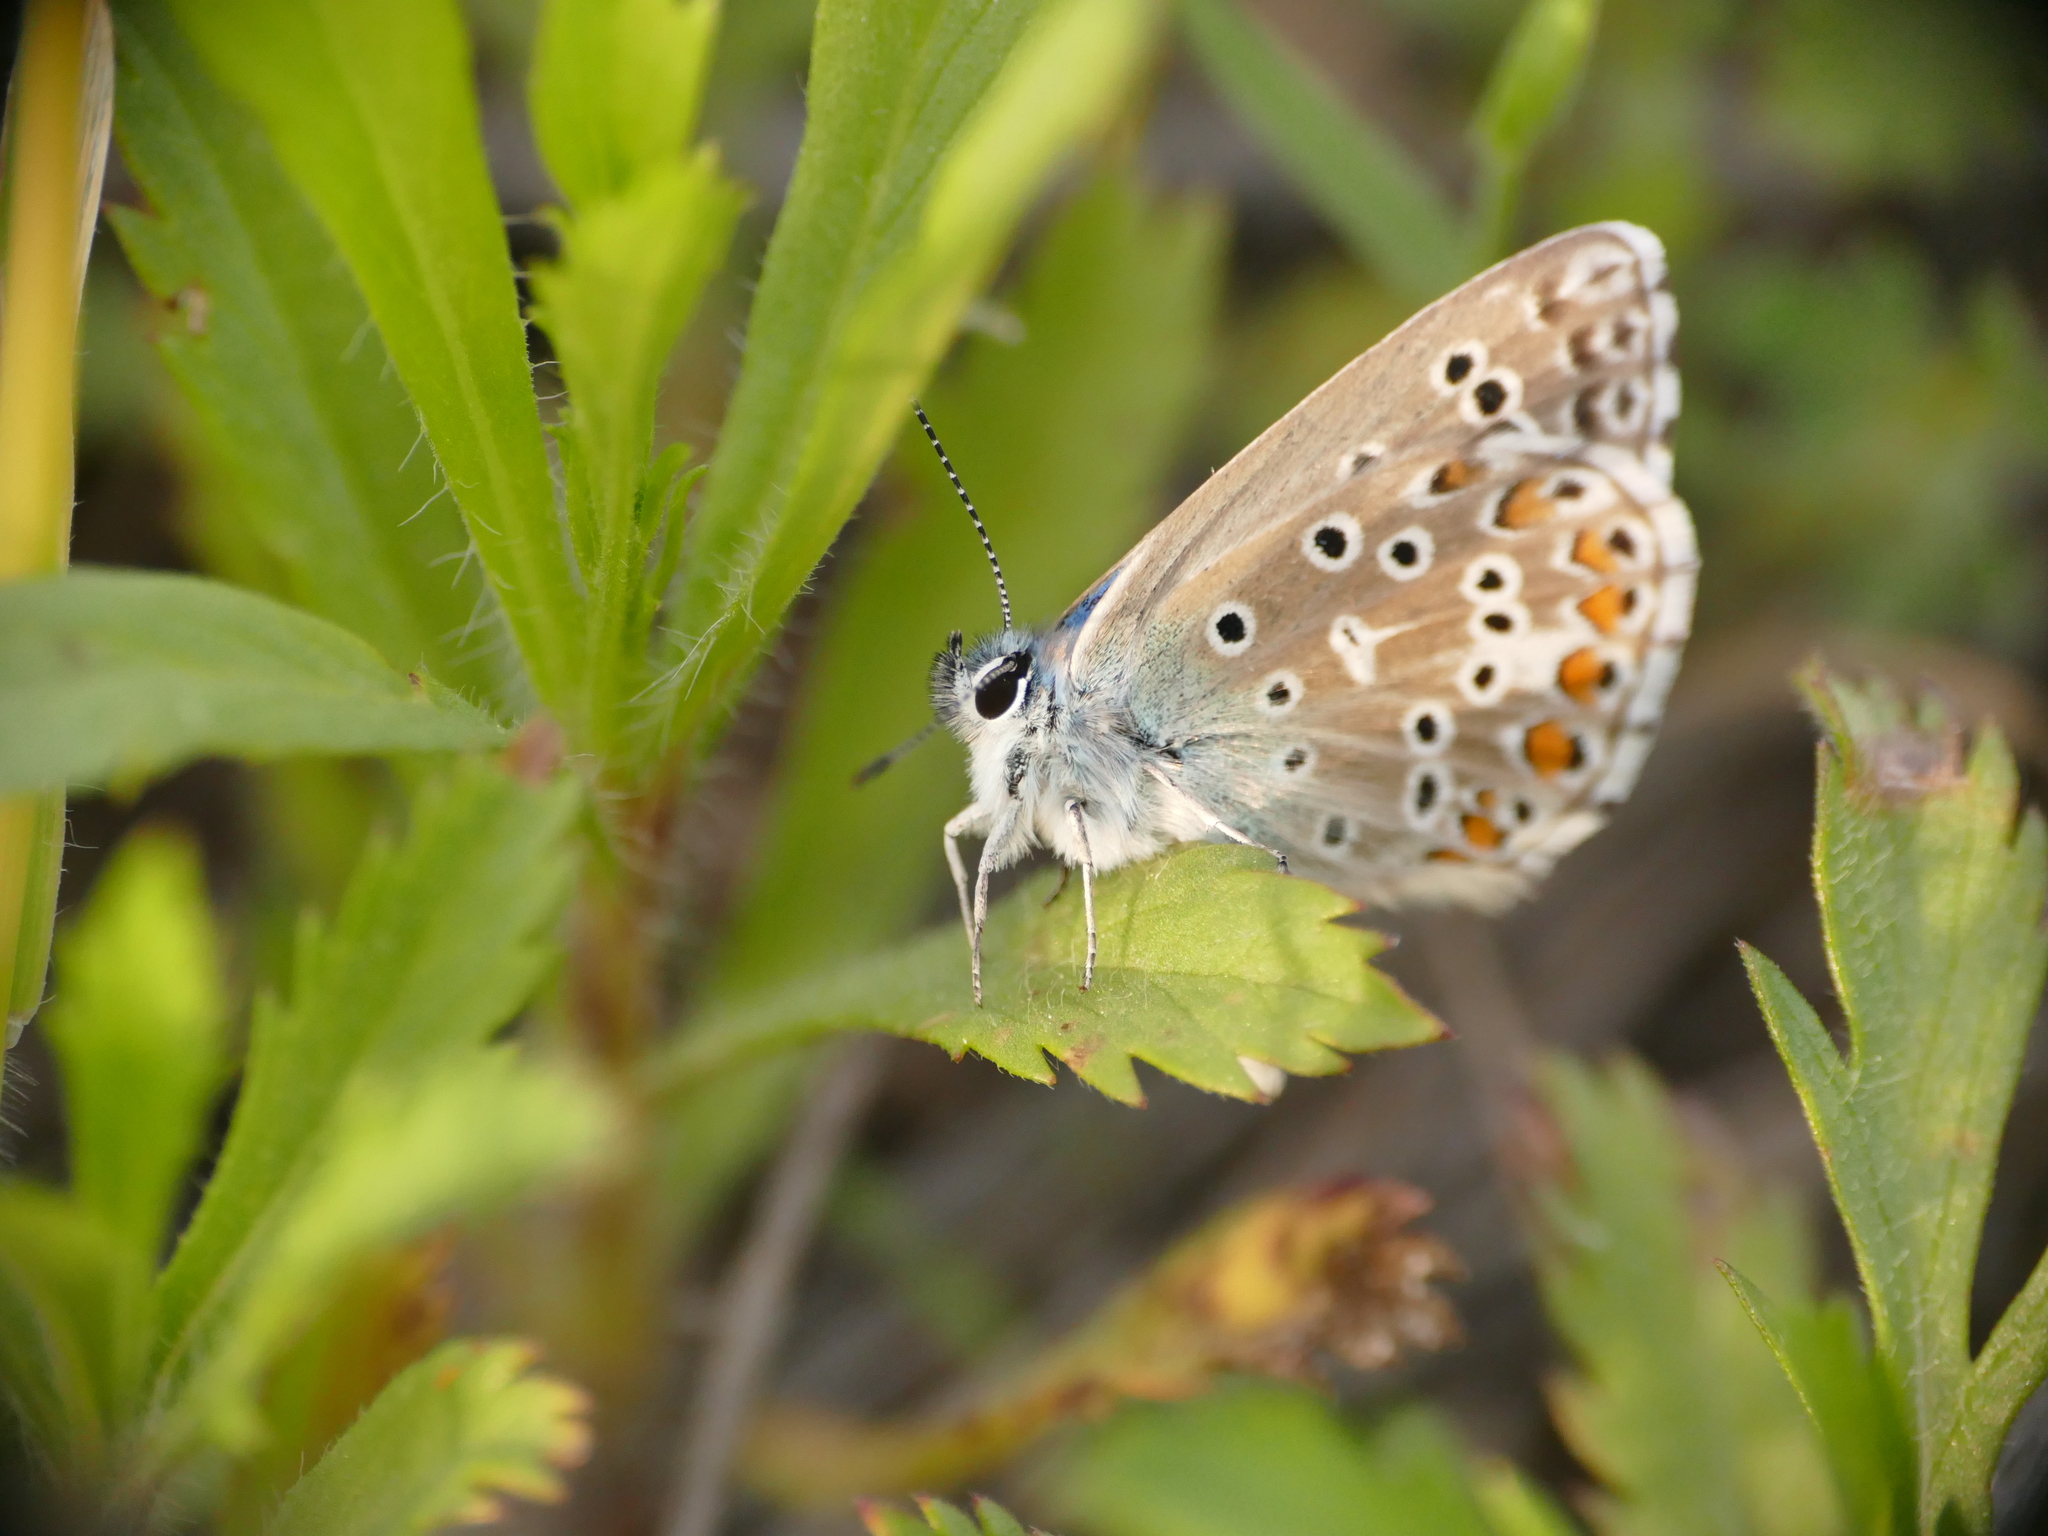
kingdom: Animalia
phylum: Arthropoda
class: Insecta
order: Lepidoptera
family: Lycaenidae
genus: Lysandra
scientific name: Lysandra bellargus
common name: Adonis blue
